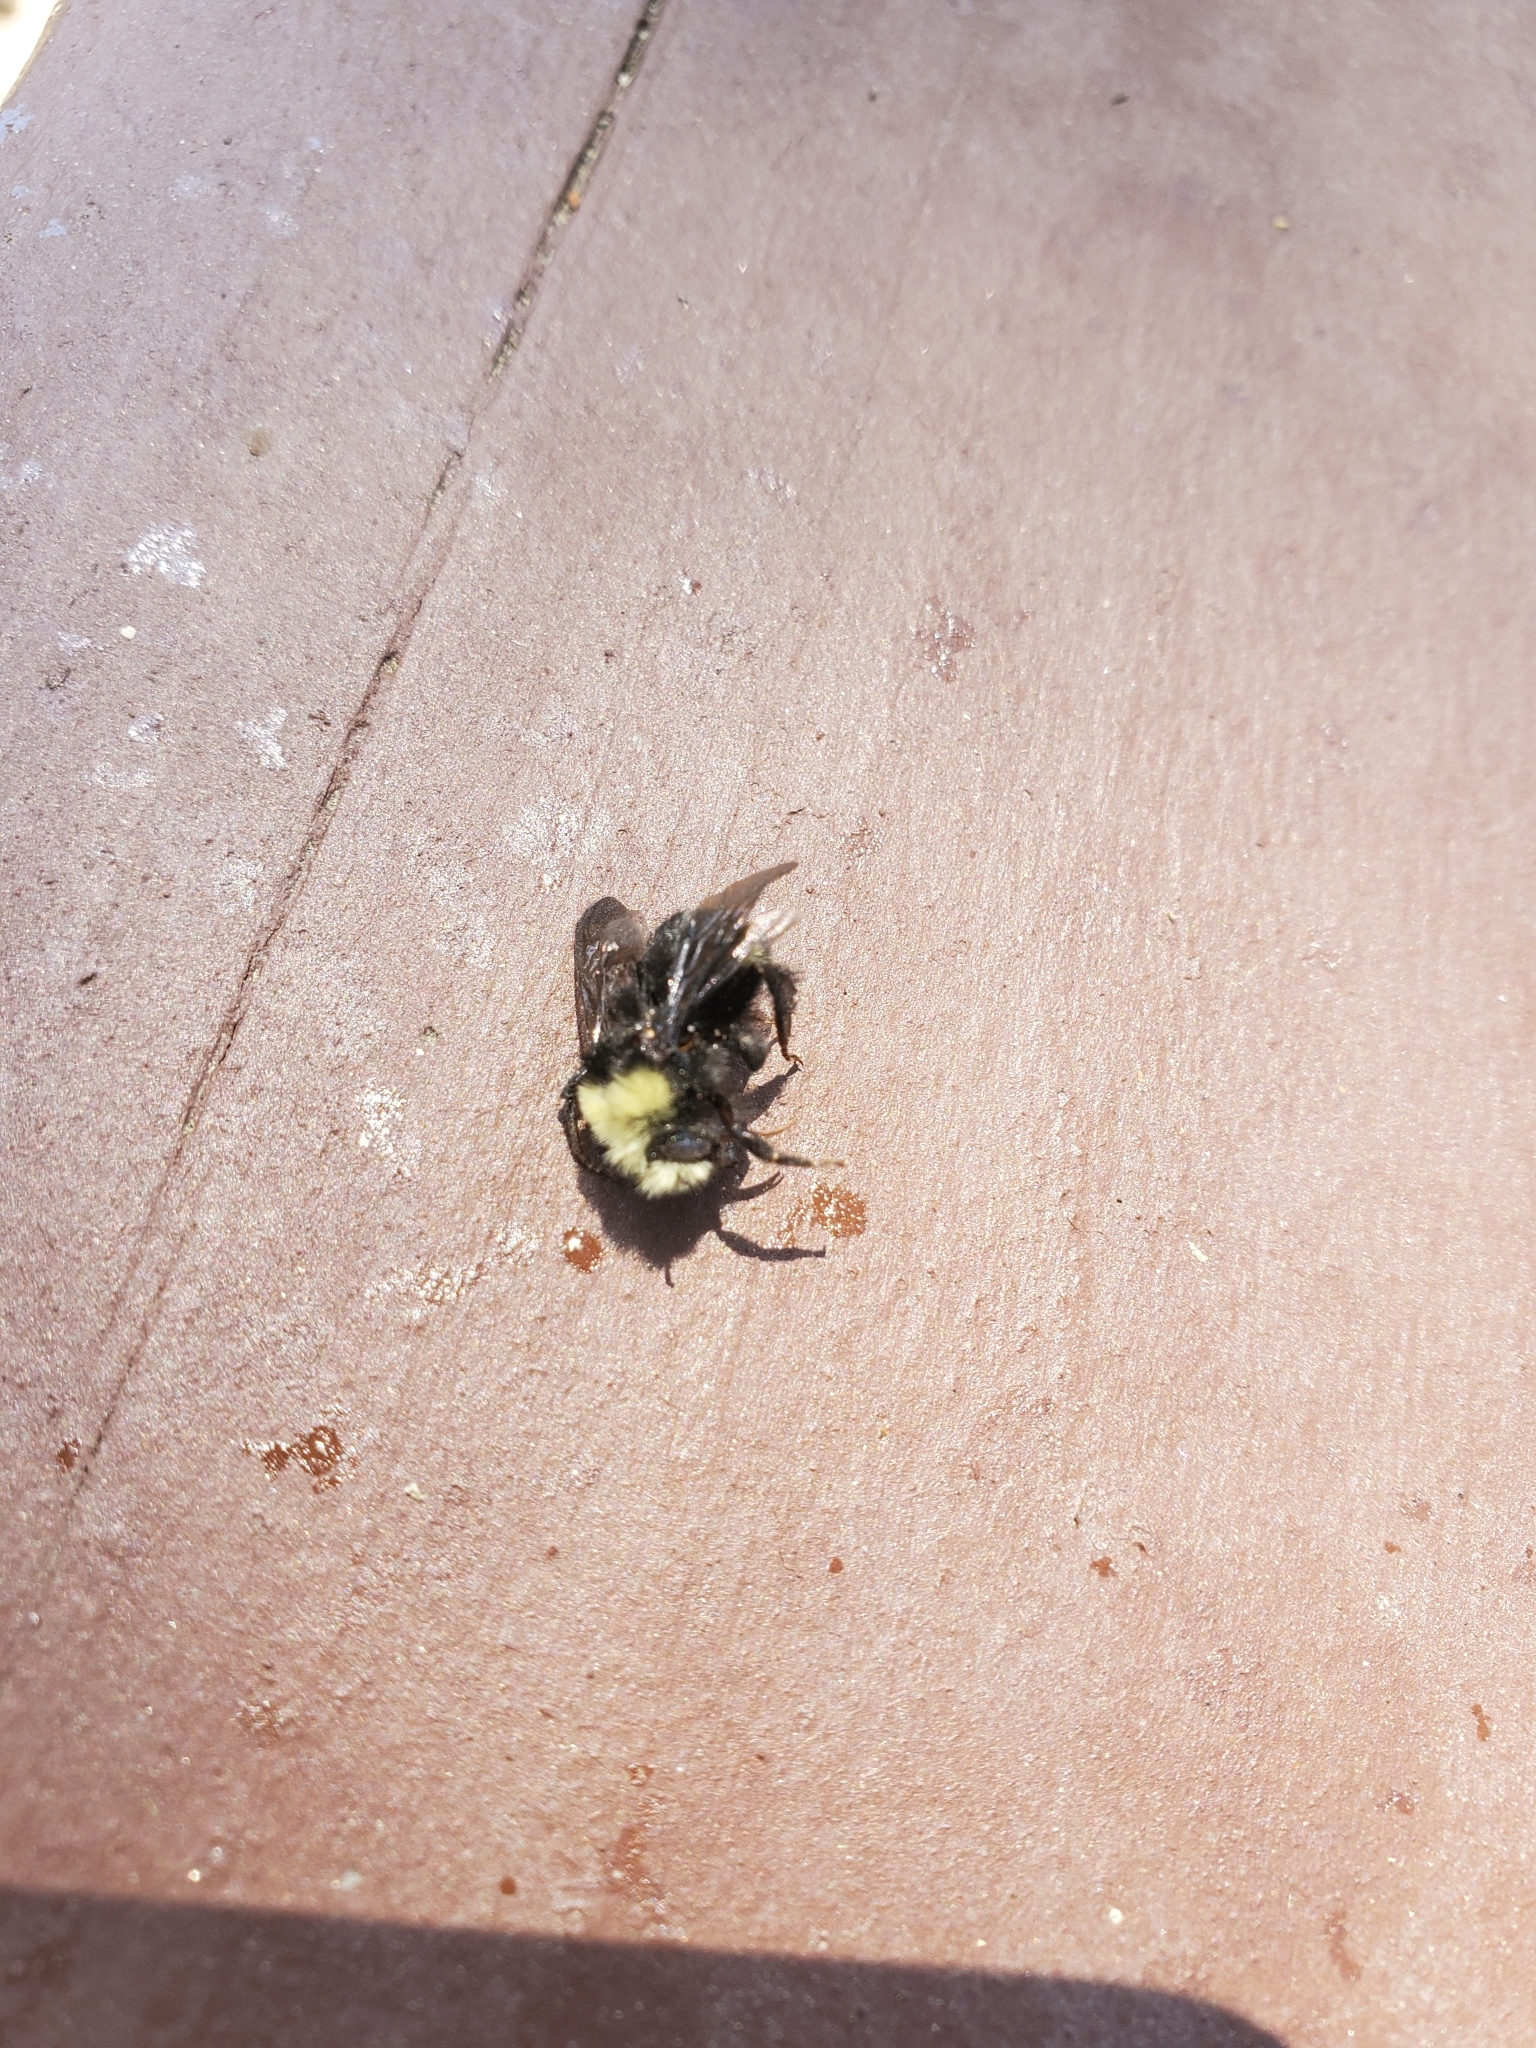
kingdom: Animalia
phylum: Arthropoda
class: Insecta
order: Hymenoptera
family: Apidae
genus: Bombus
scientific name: Bombus vosnesenskii
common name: Vosnesensky bumble bee
